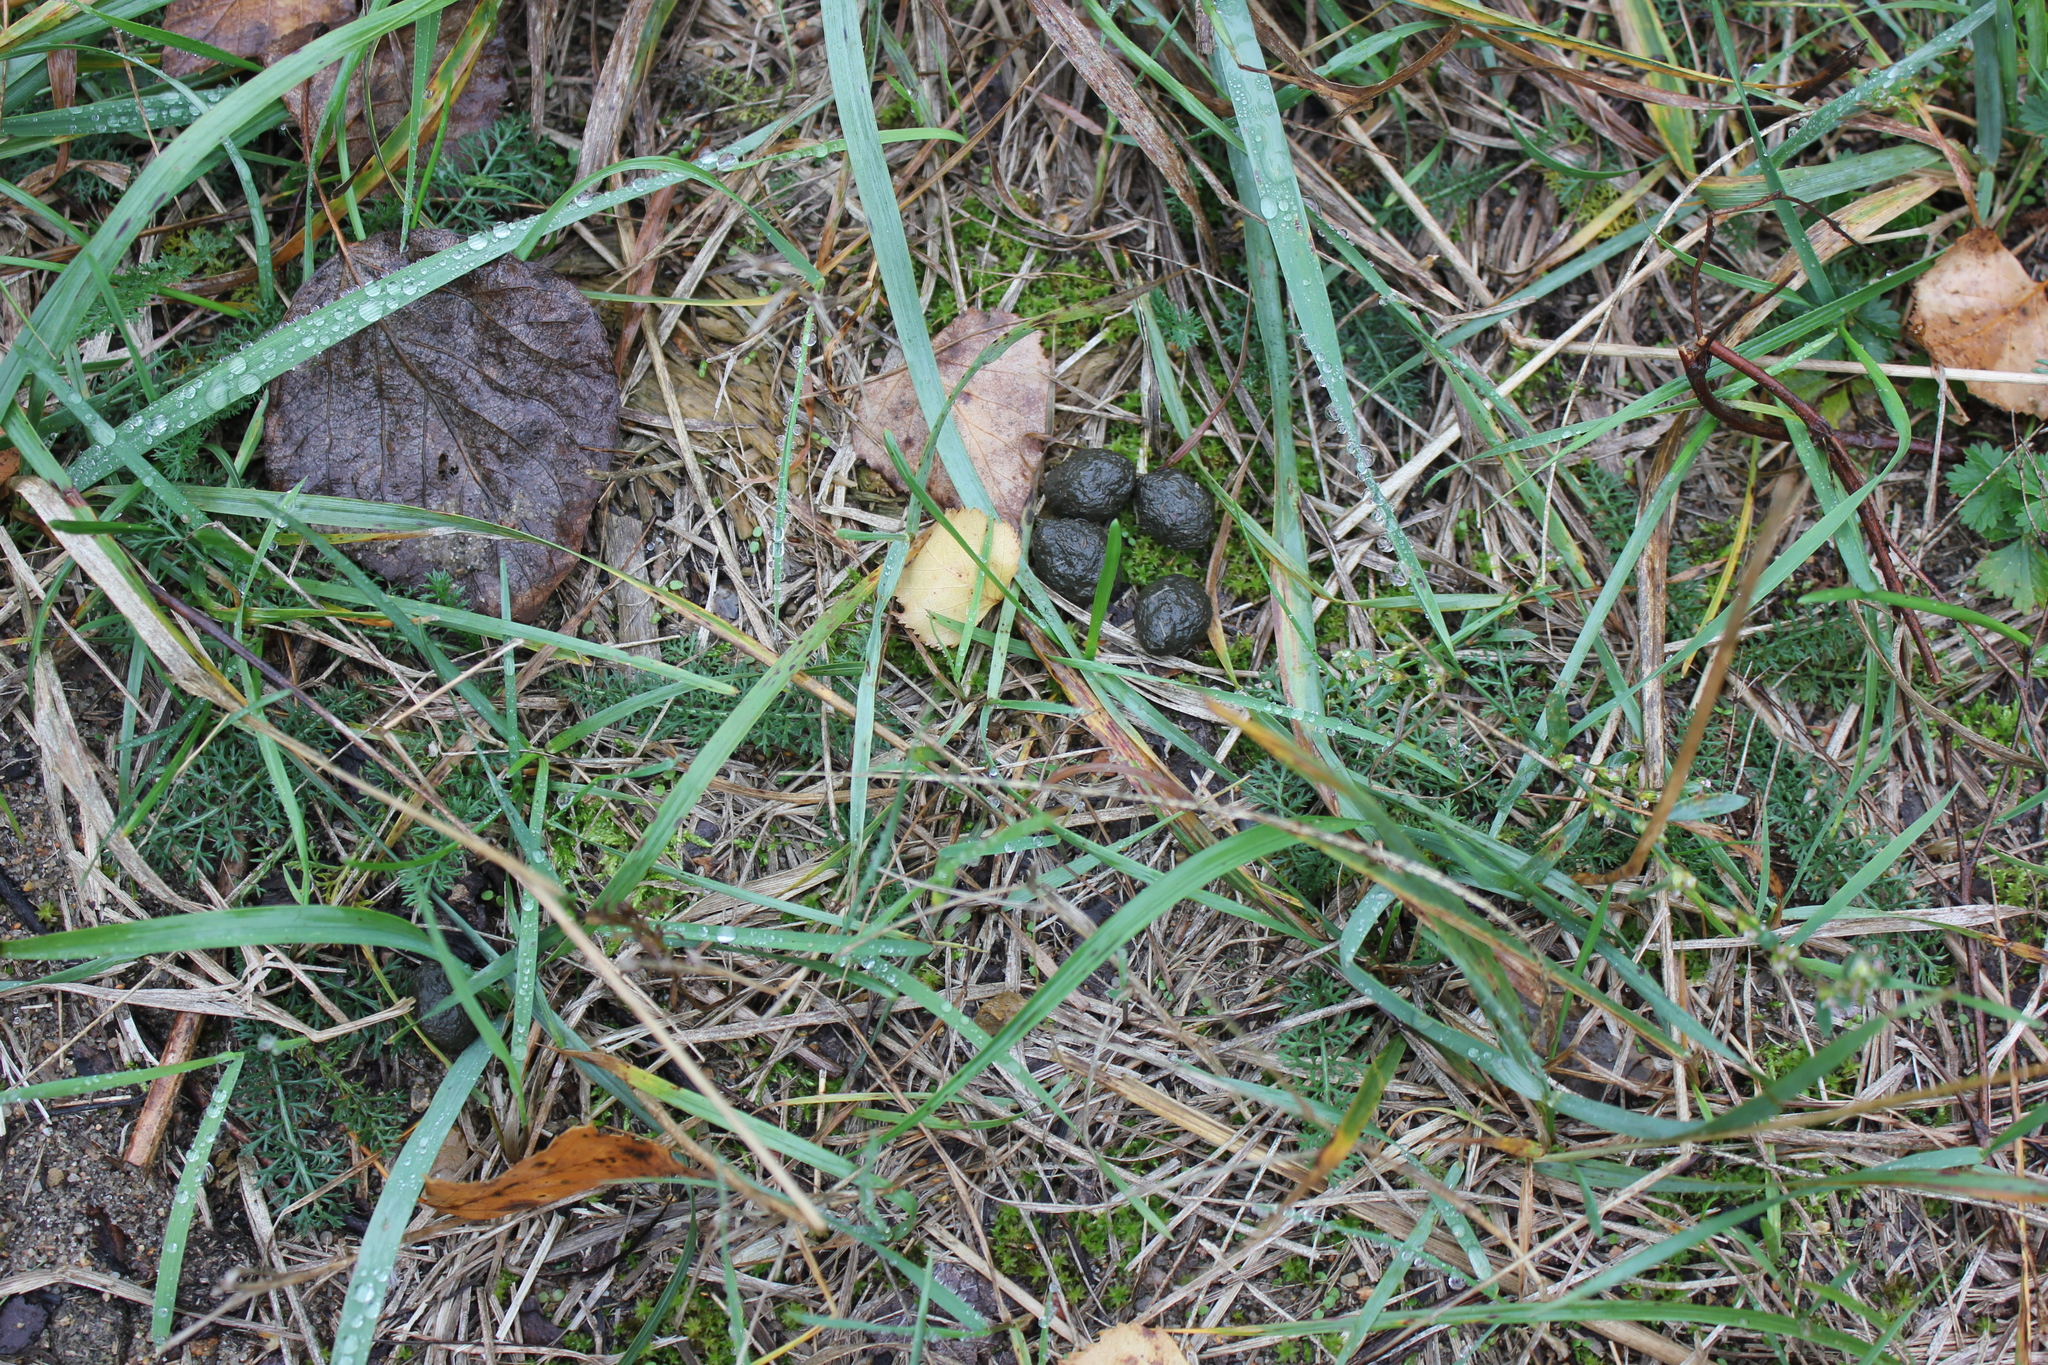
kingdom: Animalia
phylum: Chordata
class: Mammalia
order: Lagomorpha
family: Leporidae
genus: Lepus
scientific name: Lepus europaeus
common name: European hare
